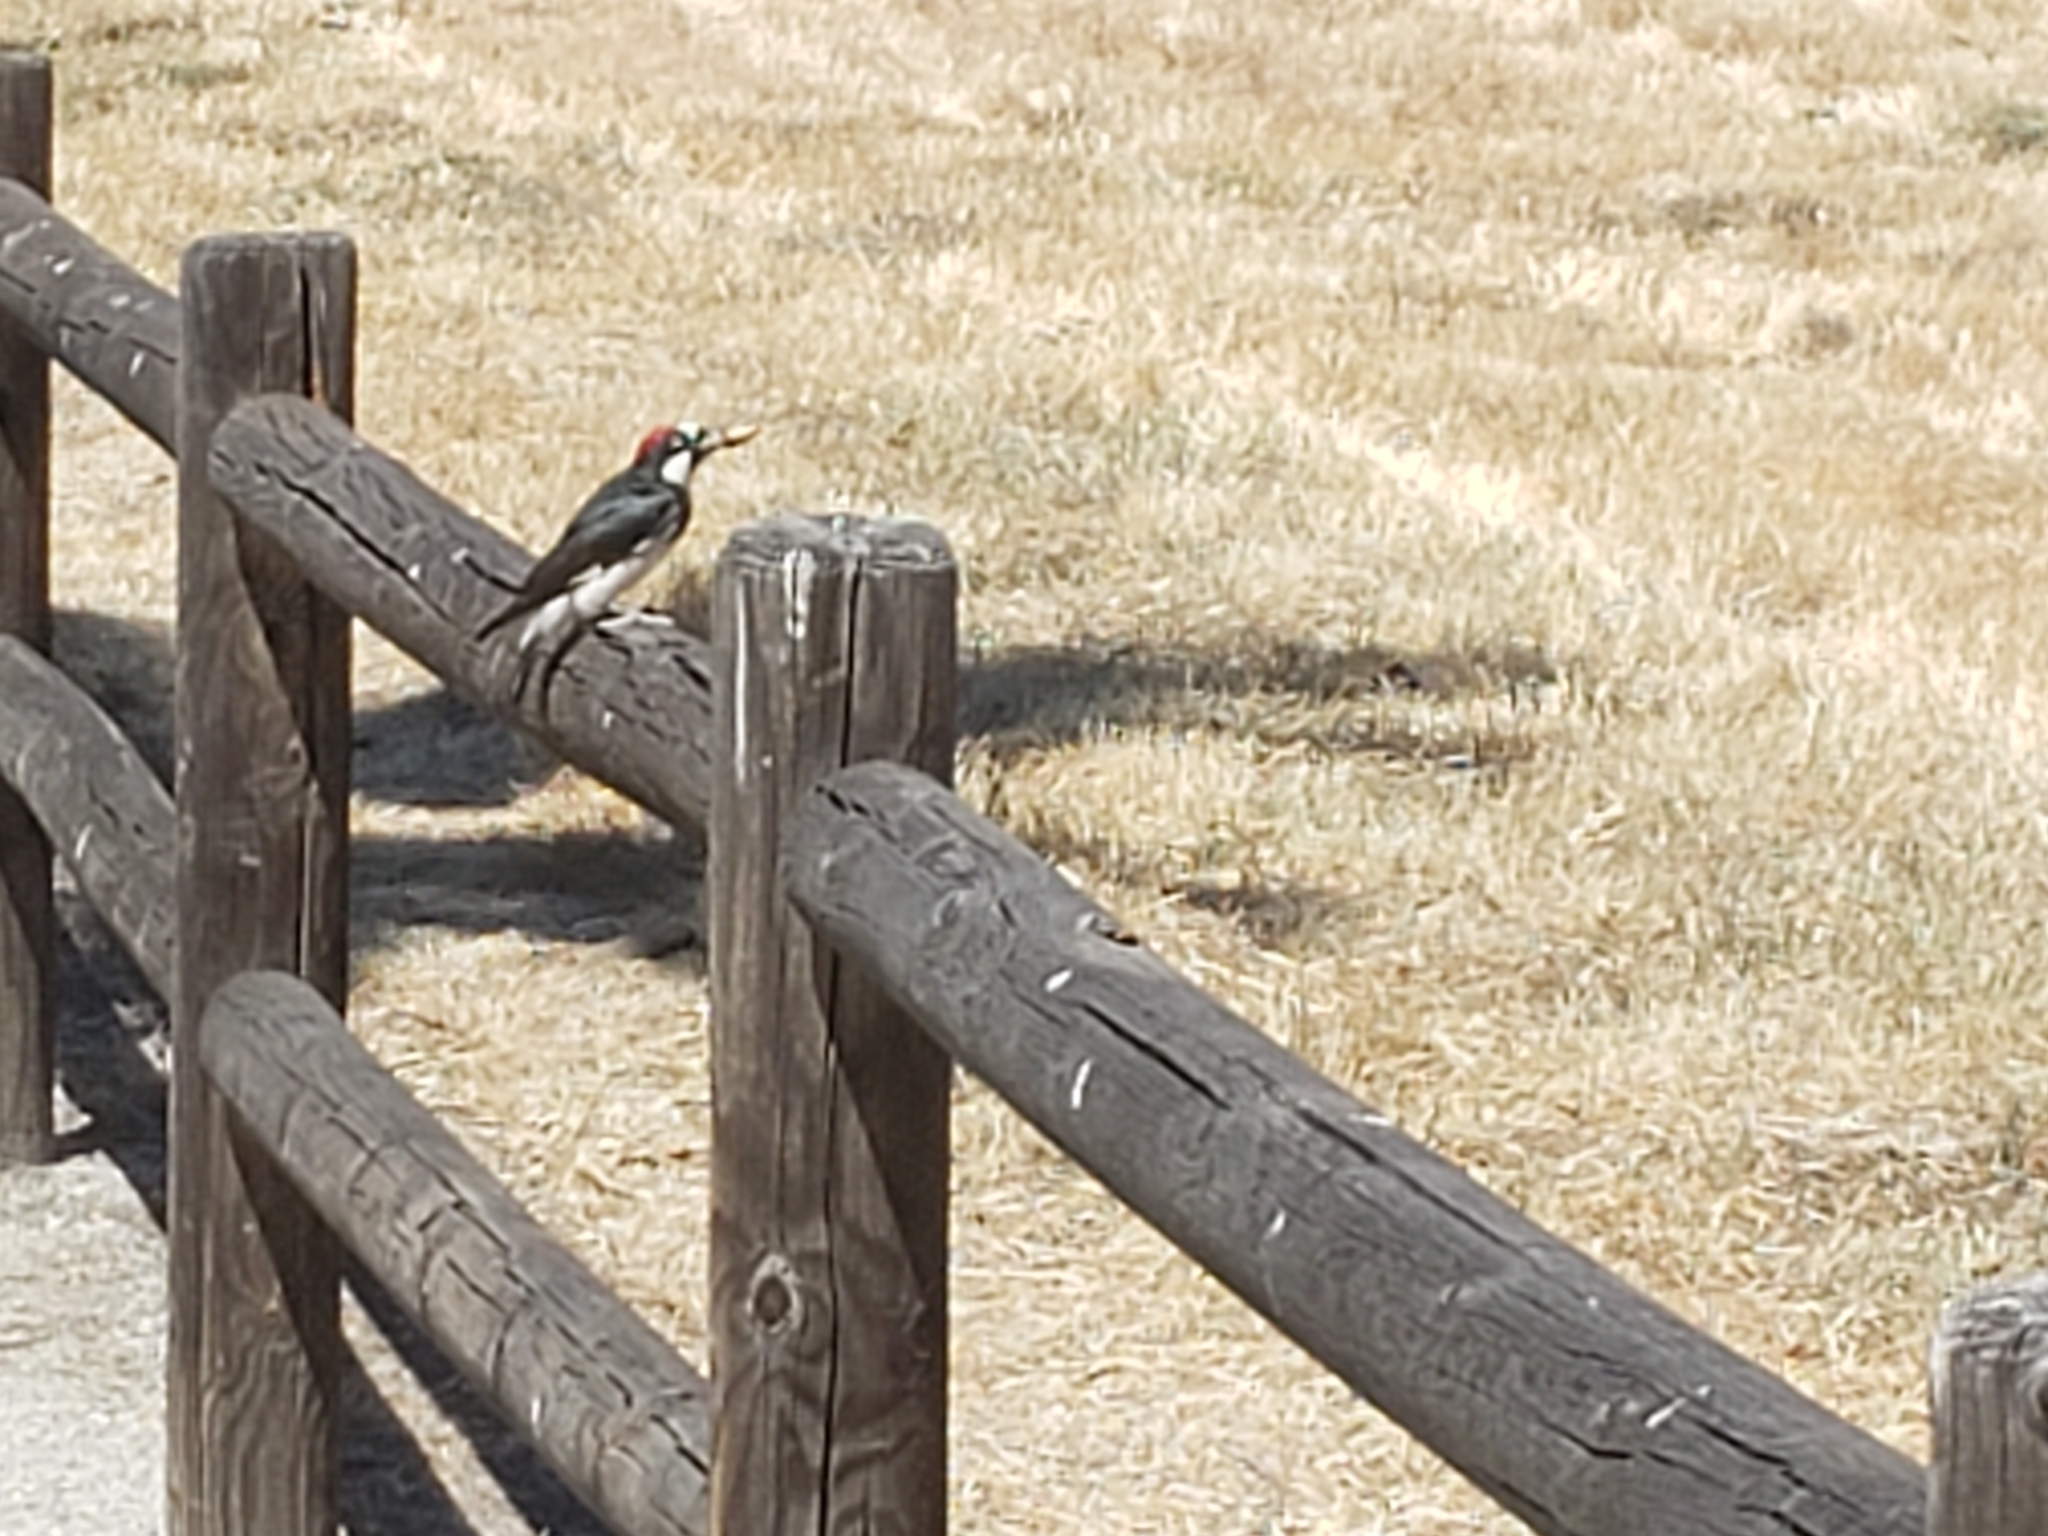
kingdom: Animalia
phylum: Chordata
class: Aves
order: Piciformes
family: Picidae
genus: Melanerpes
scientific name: Melanerpes formicivorus
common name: Acorn woodpecker
